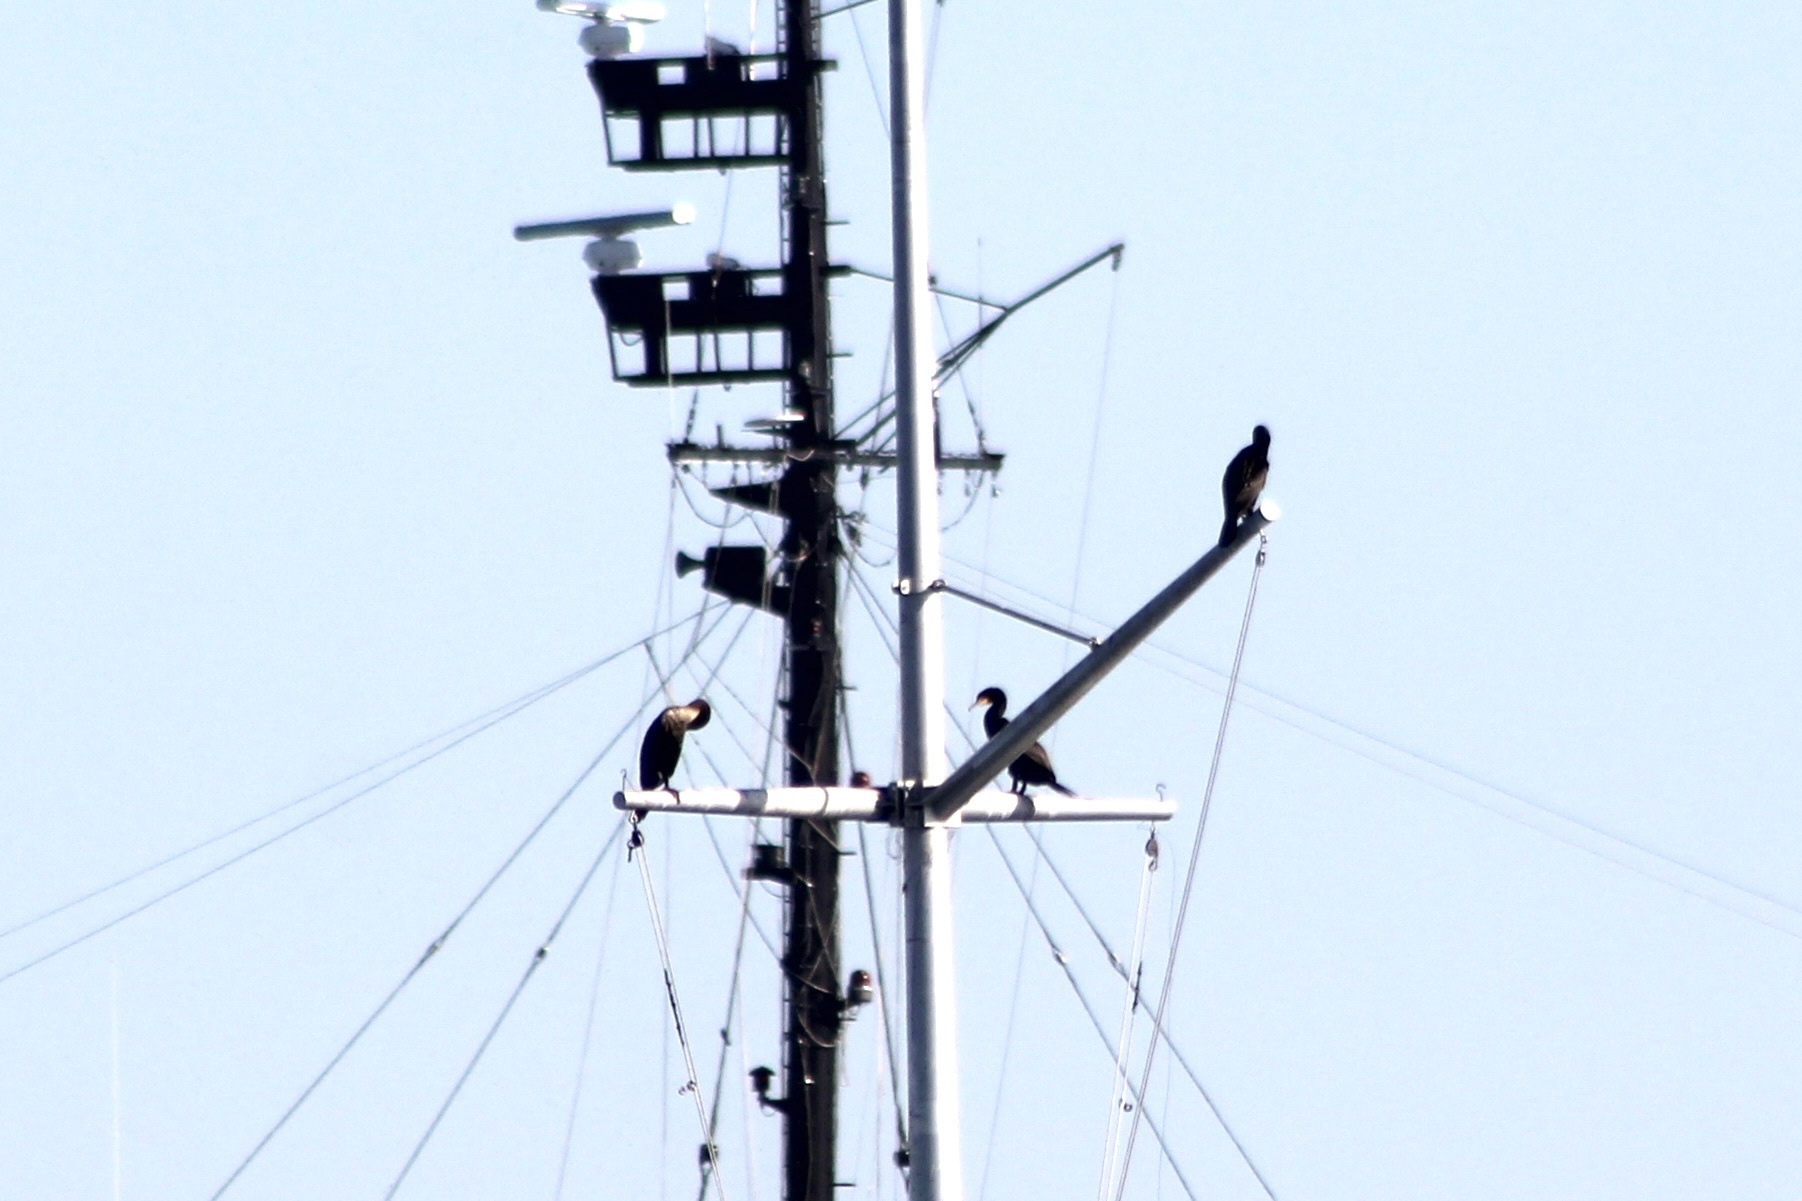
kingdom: Animalia
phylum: Chordata
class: Aves
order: Suliformes
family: Phalacrocoracidae
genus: Phalacrocorax
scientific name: Phalacrocorax auritus
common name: Double-crested cormorant
